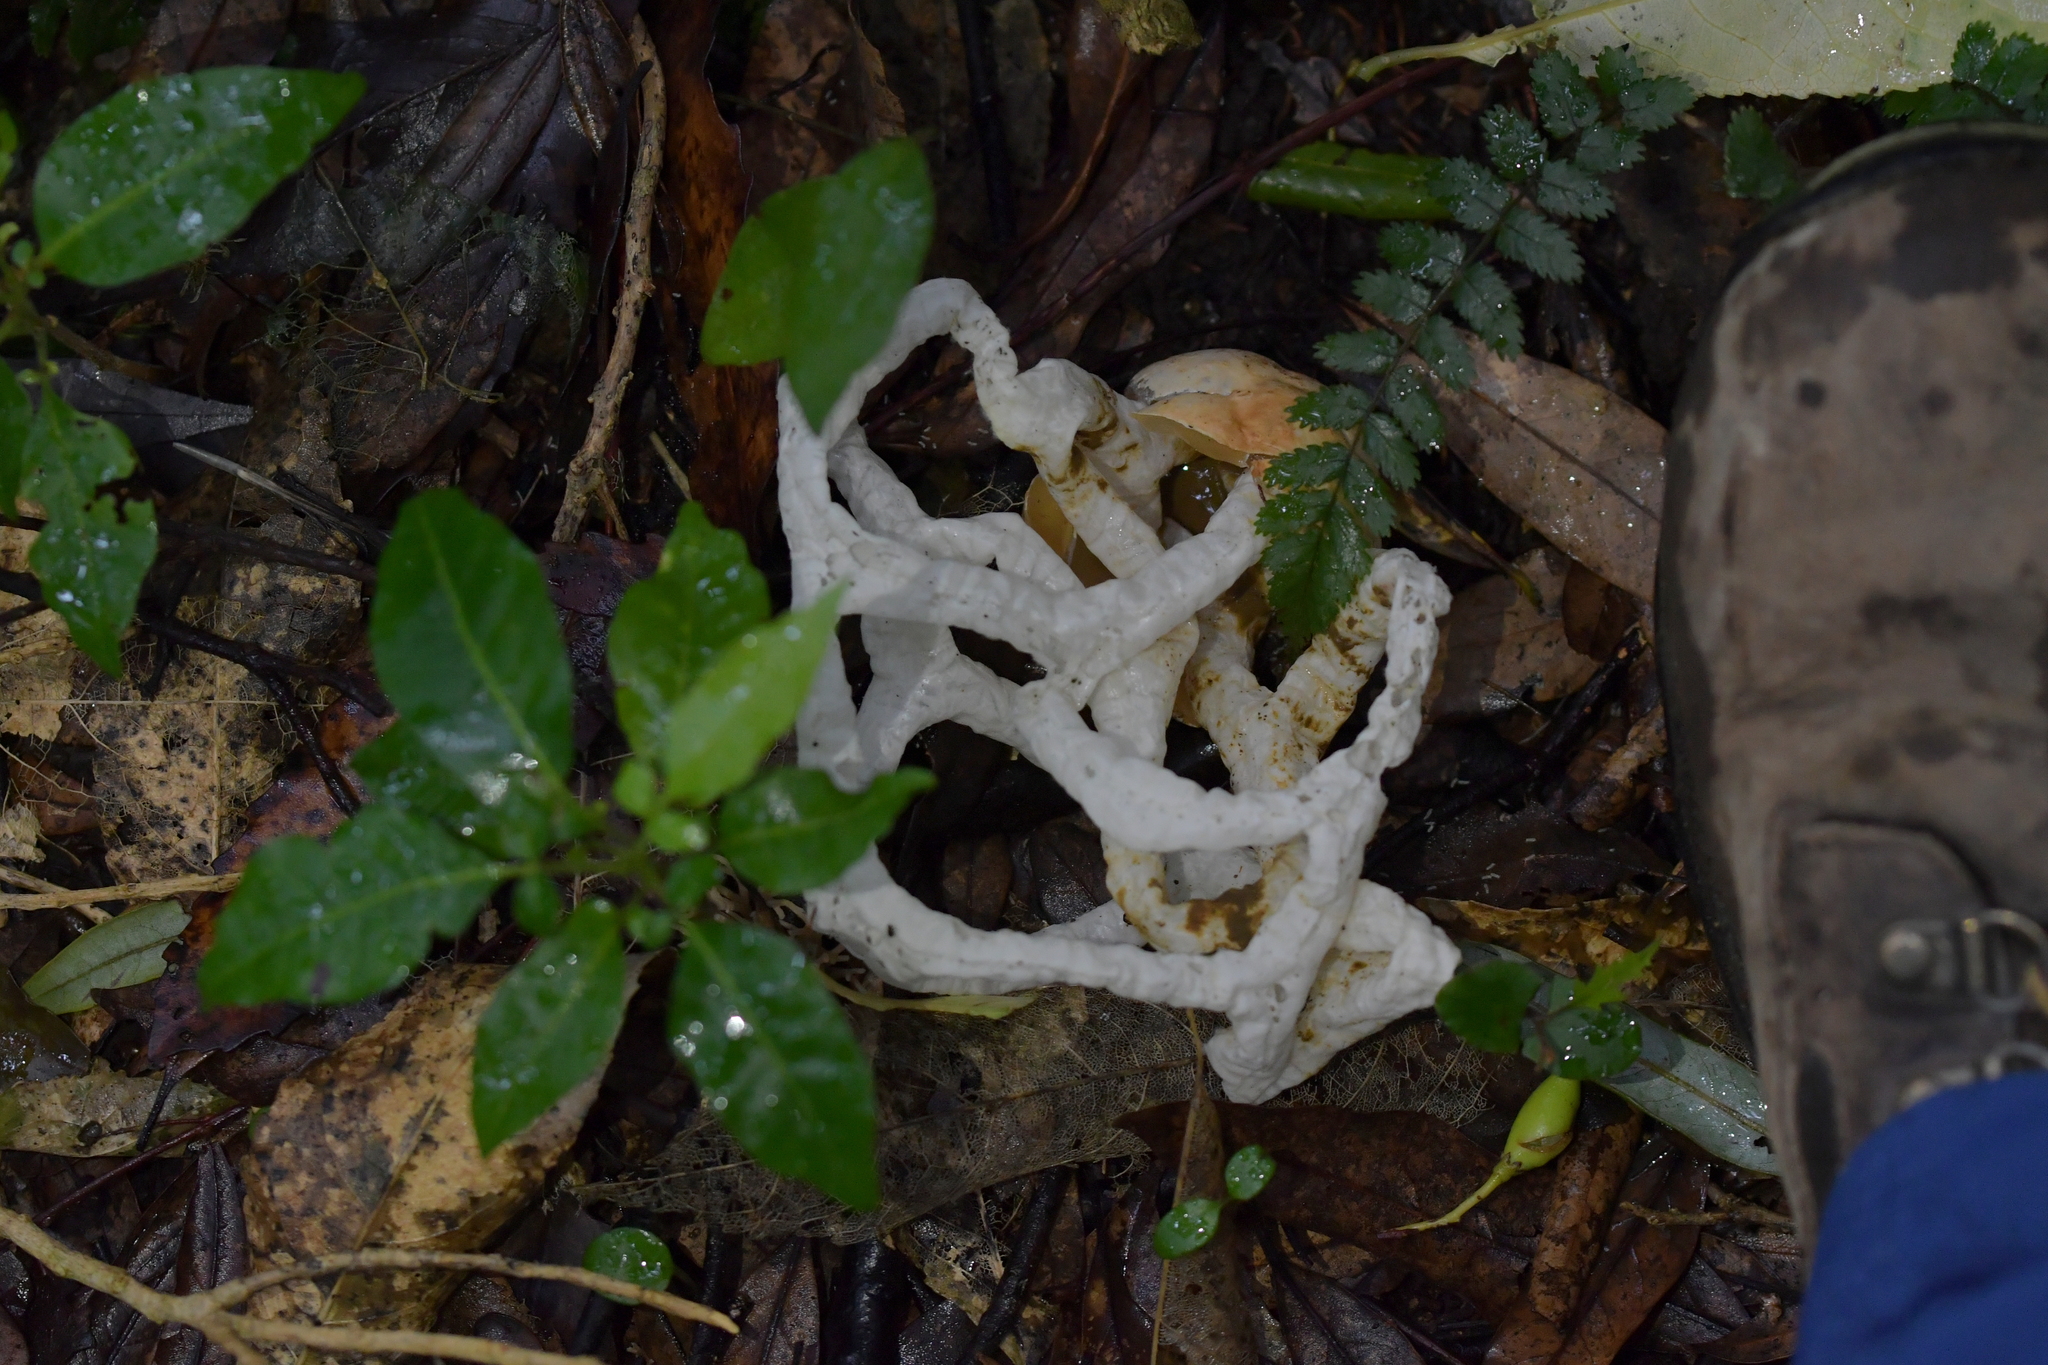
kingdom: Fungi
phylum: Basidiomycota
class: Agaricomycetes
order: Phallales
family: Phallaceae
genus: Ileodictyon
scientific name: Ileodictyon cibarium
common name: Basket fungus
